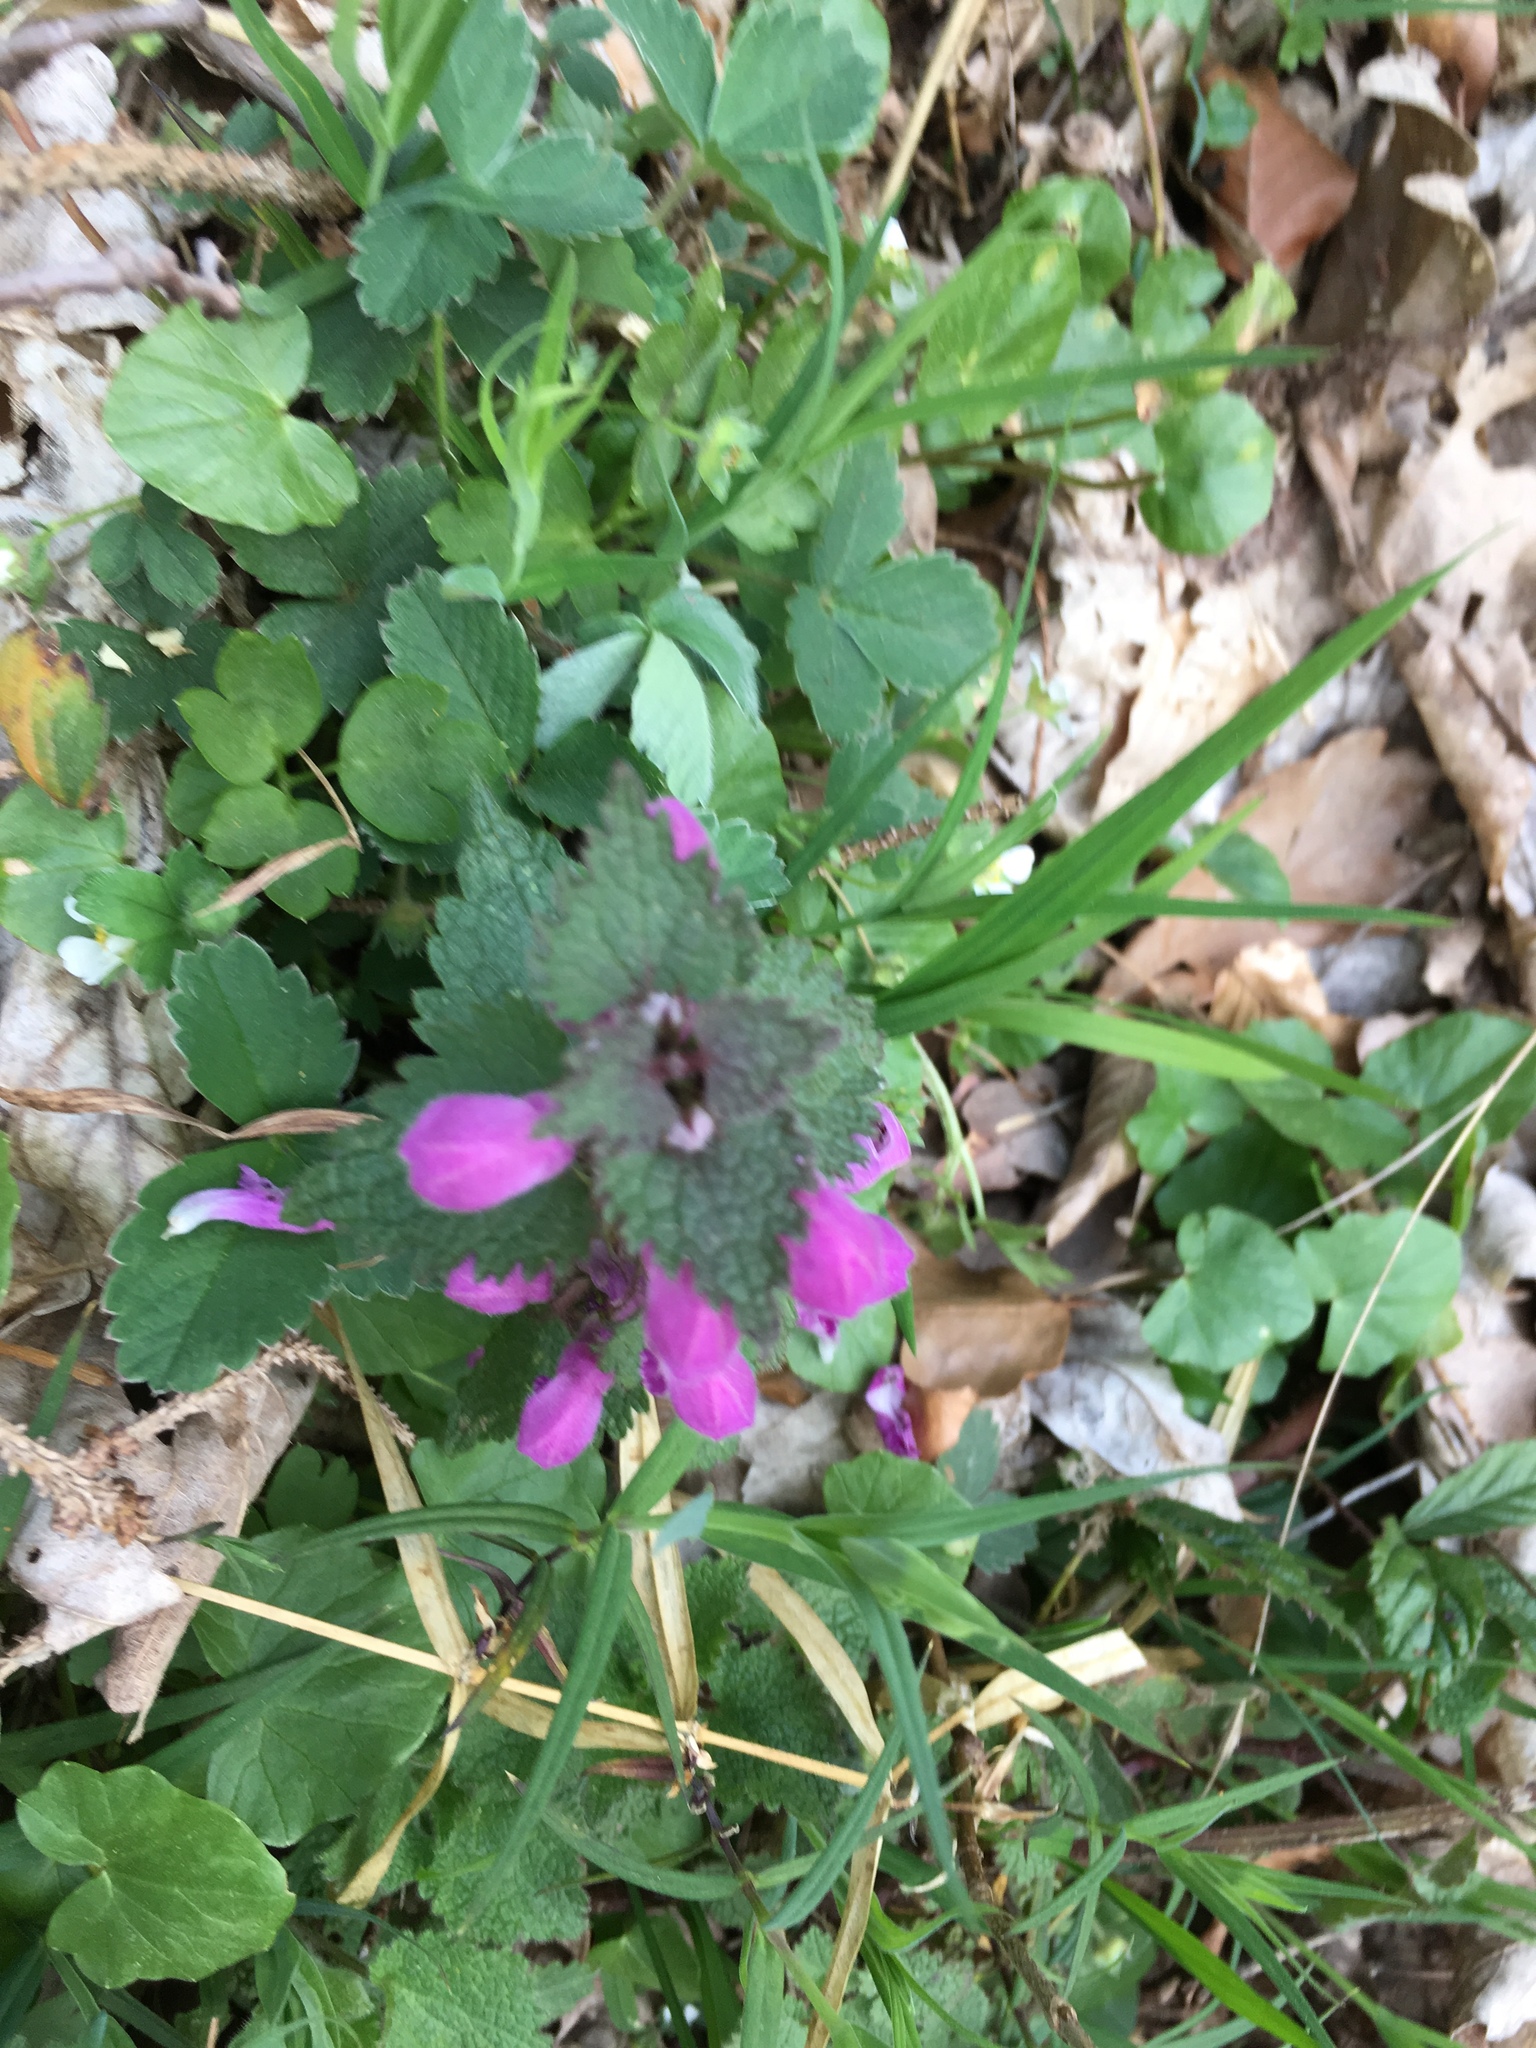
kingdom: Plantae
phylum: Tracheophyta
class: Magnoliopsida
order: Lamiales
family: Lamiaceae
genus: Lamium
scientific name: Lamium maculatum
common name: Spotted dead-nettle
